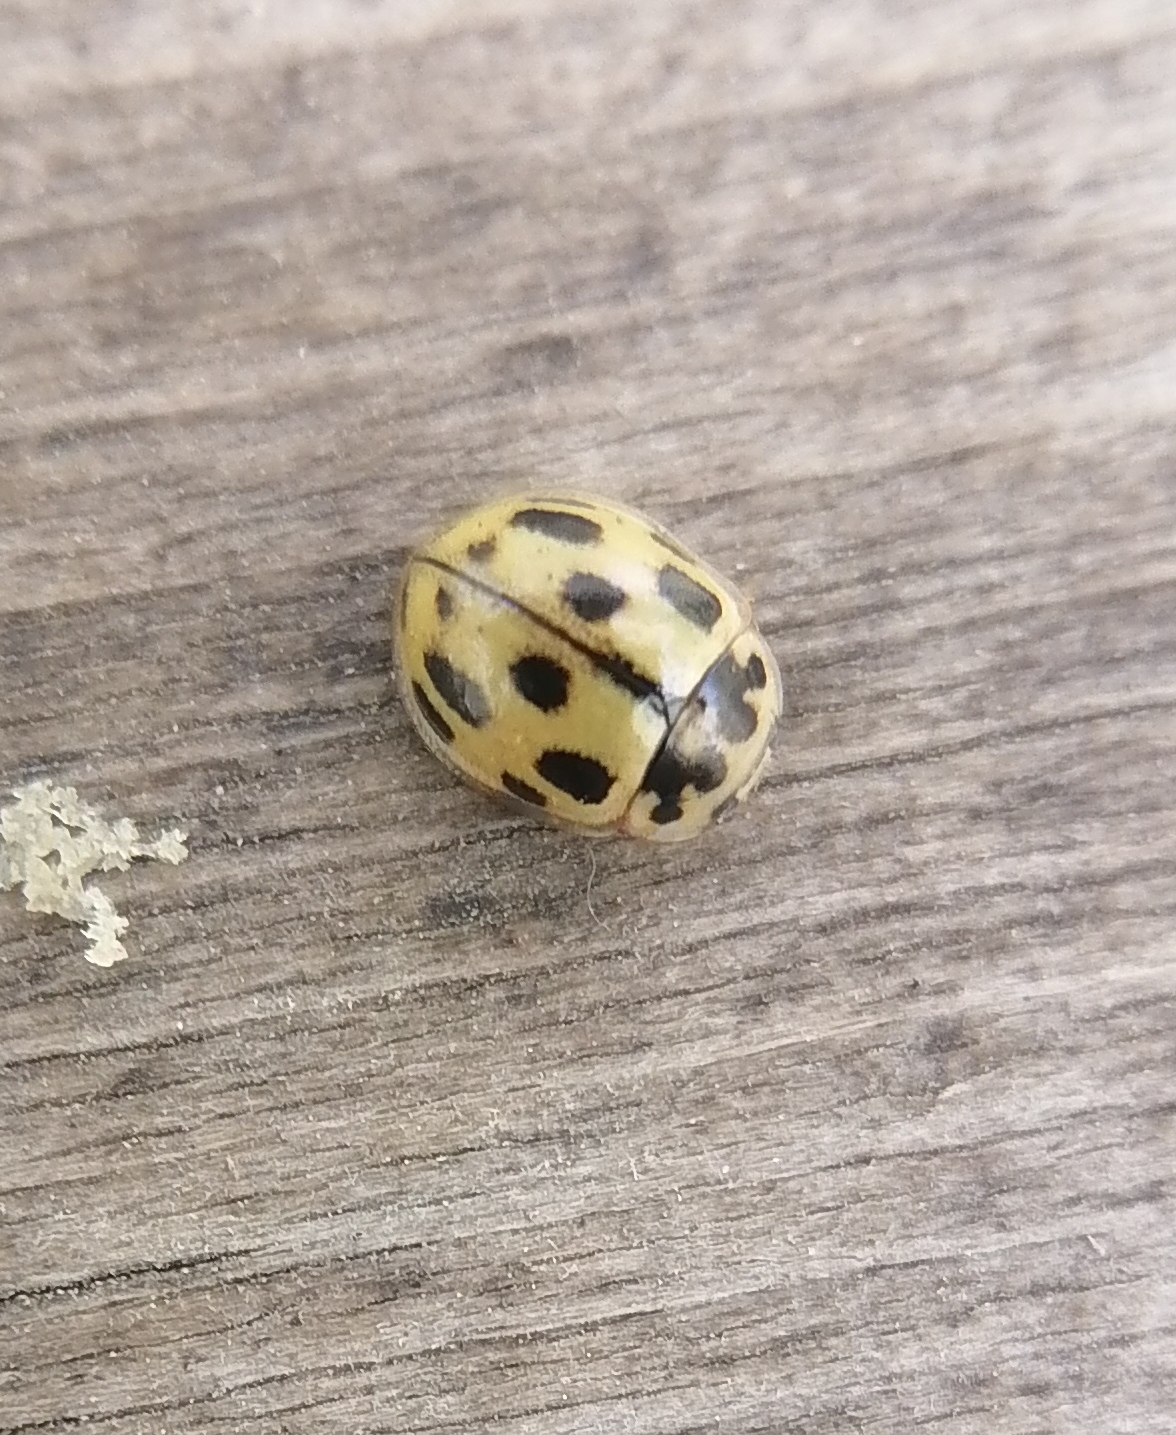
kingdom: Animalia
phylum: Arthropoda
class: Insecta
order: Coleoptera
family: Coccinellidae
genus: Propylaea
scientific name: Propylaea quatuordecimpunctata
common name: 14-spotted ladybird beetle
